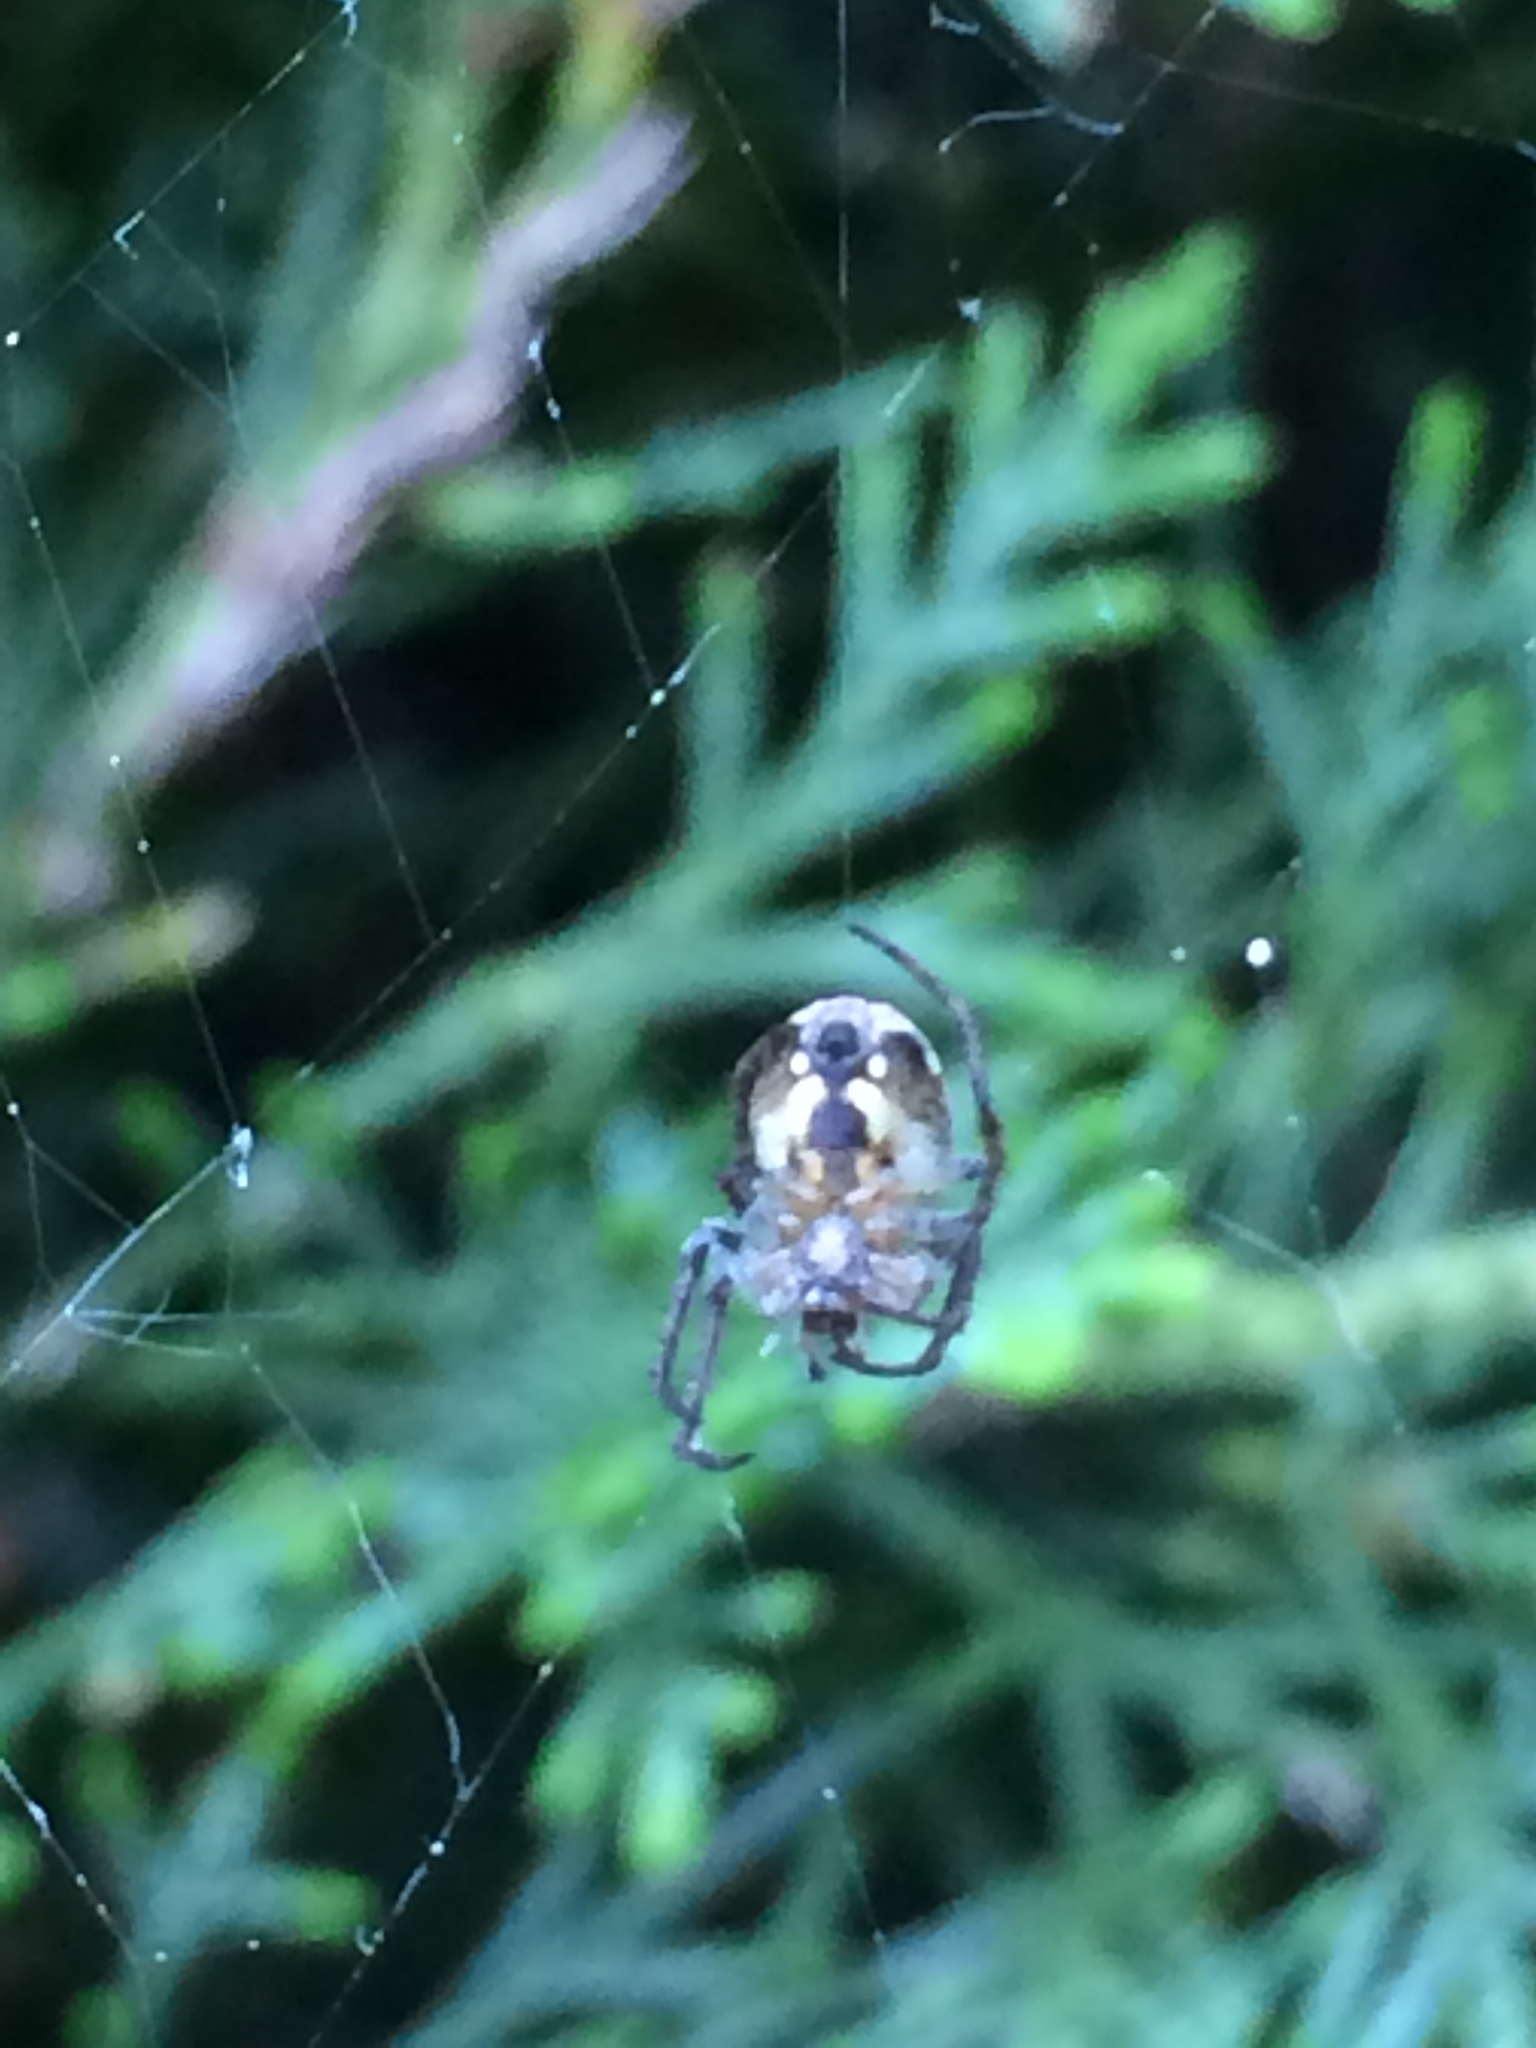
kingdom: Animalia
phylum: Arthropoda
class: Arachnida
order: Araneae
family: Araneidae
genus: Zilla
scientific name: Zilla diodia
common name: Zilla diodia
